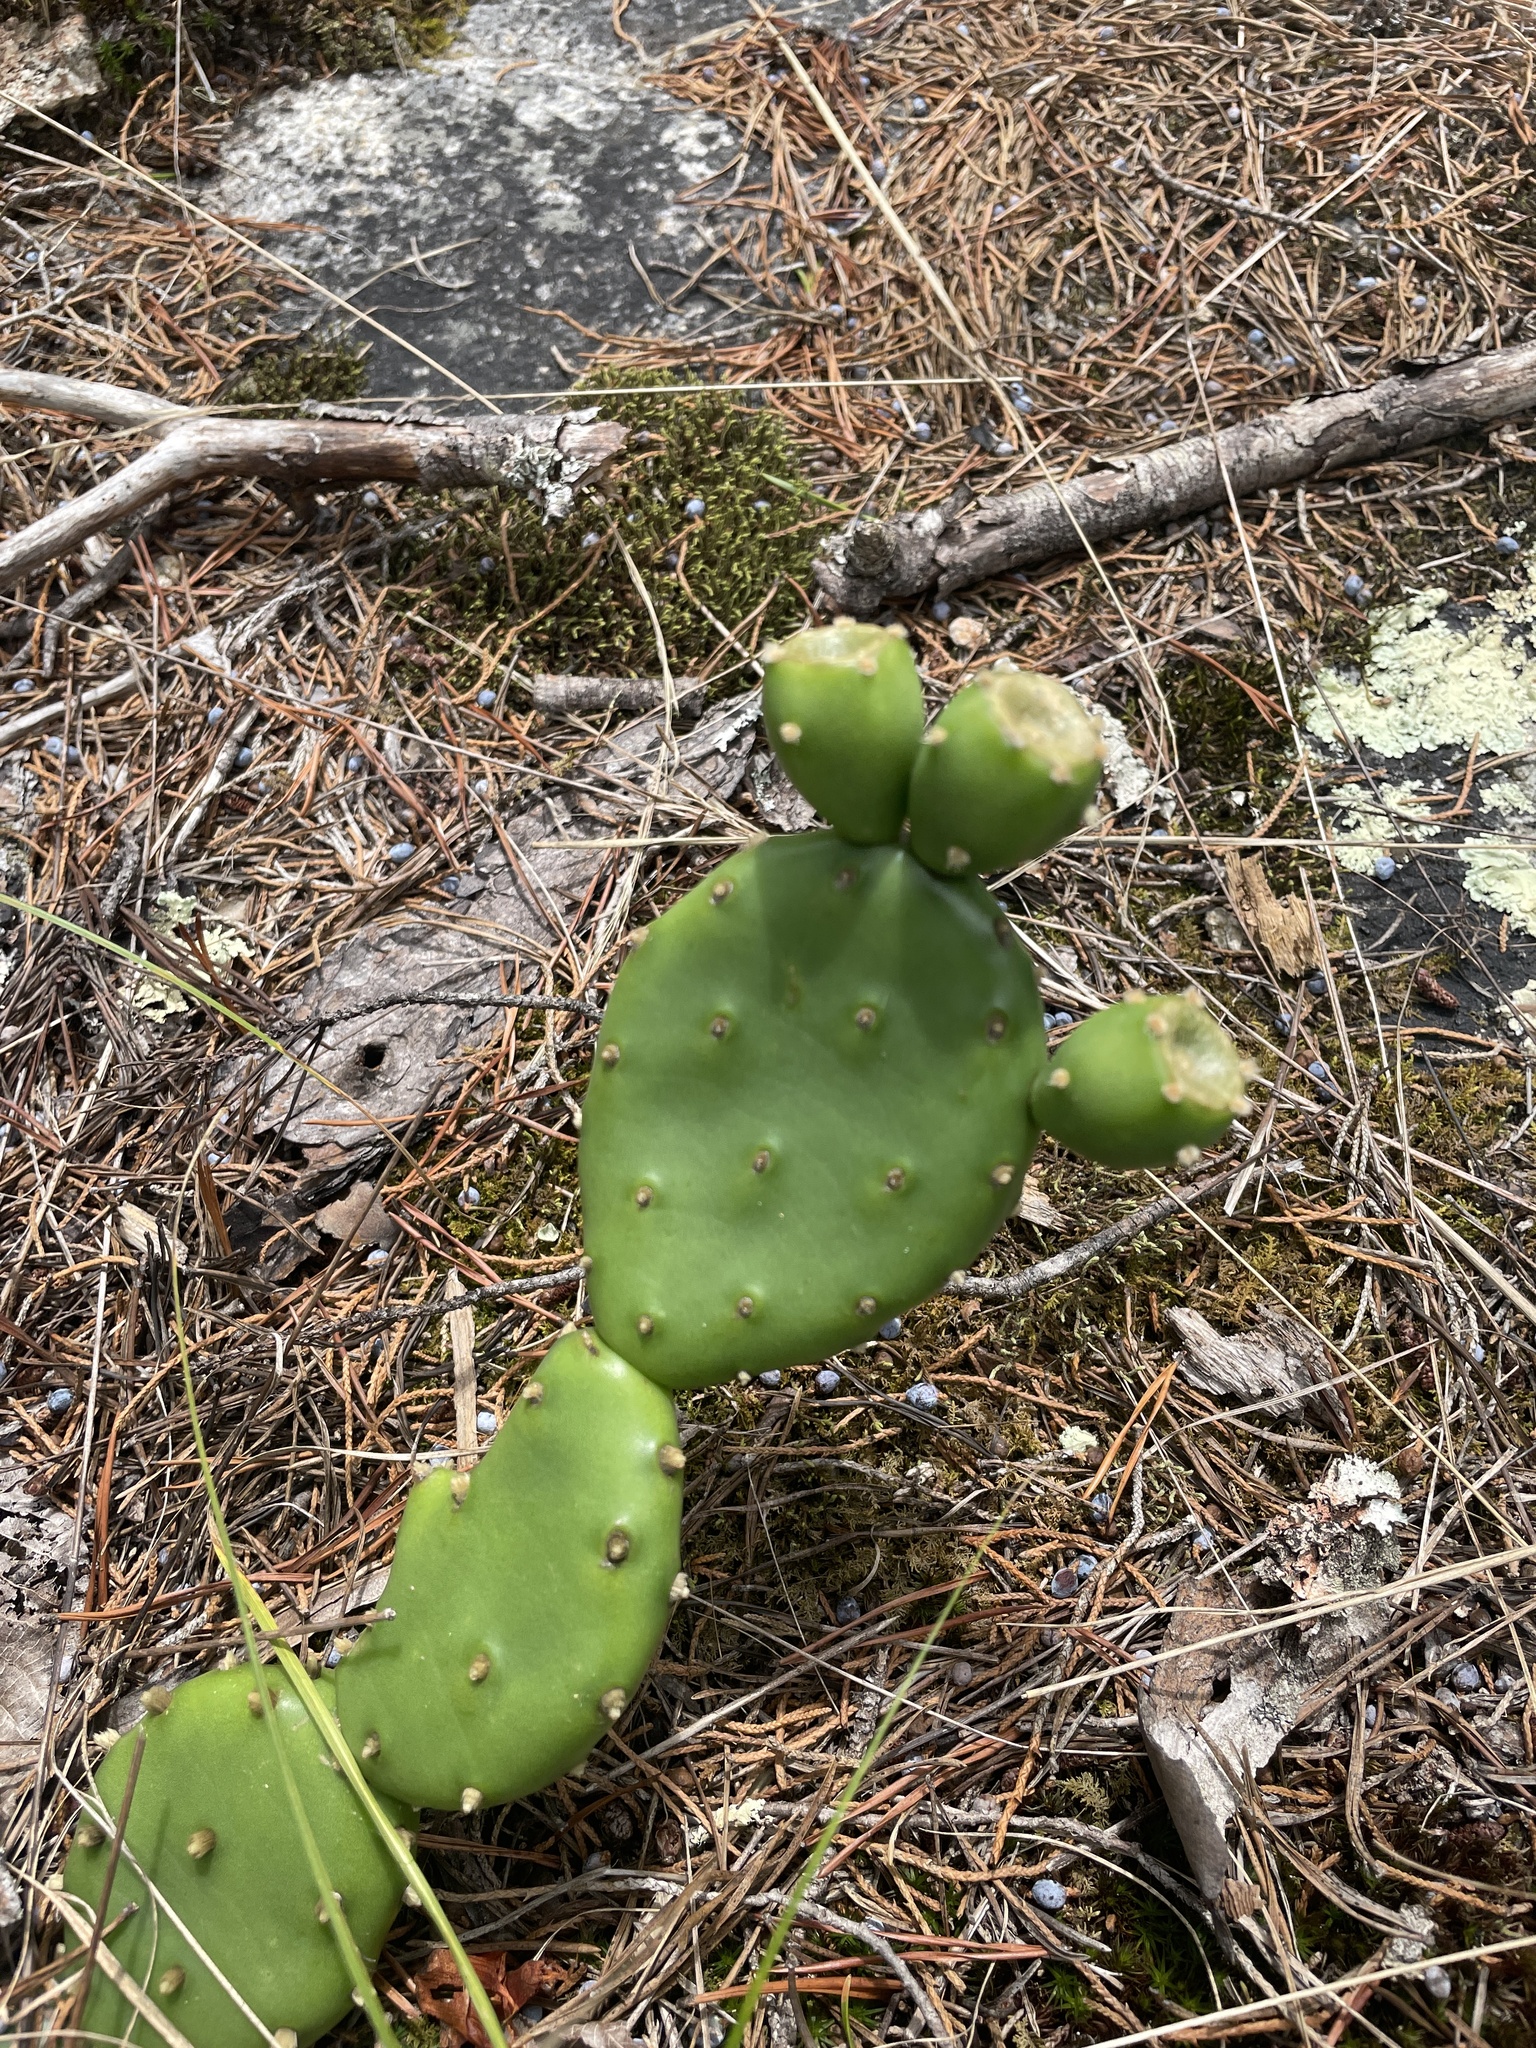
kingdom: Plantae
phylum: Tracheophyta
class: Magnoliopsida
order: Caryophyllales
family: Cactaceae
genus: Opuntia
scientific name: Opuntia mesacantha
